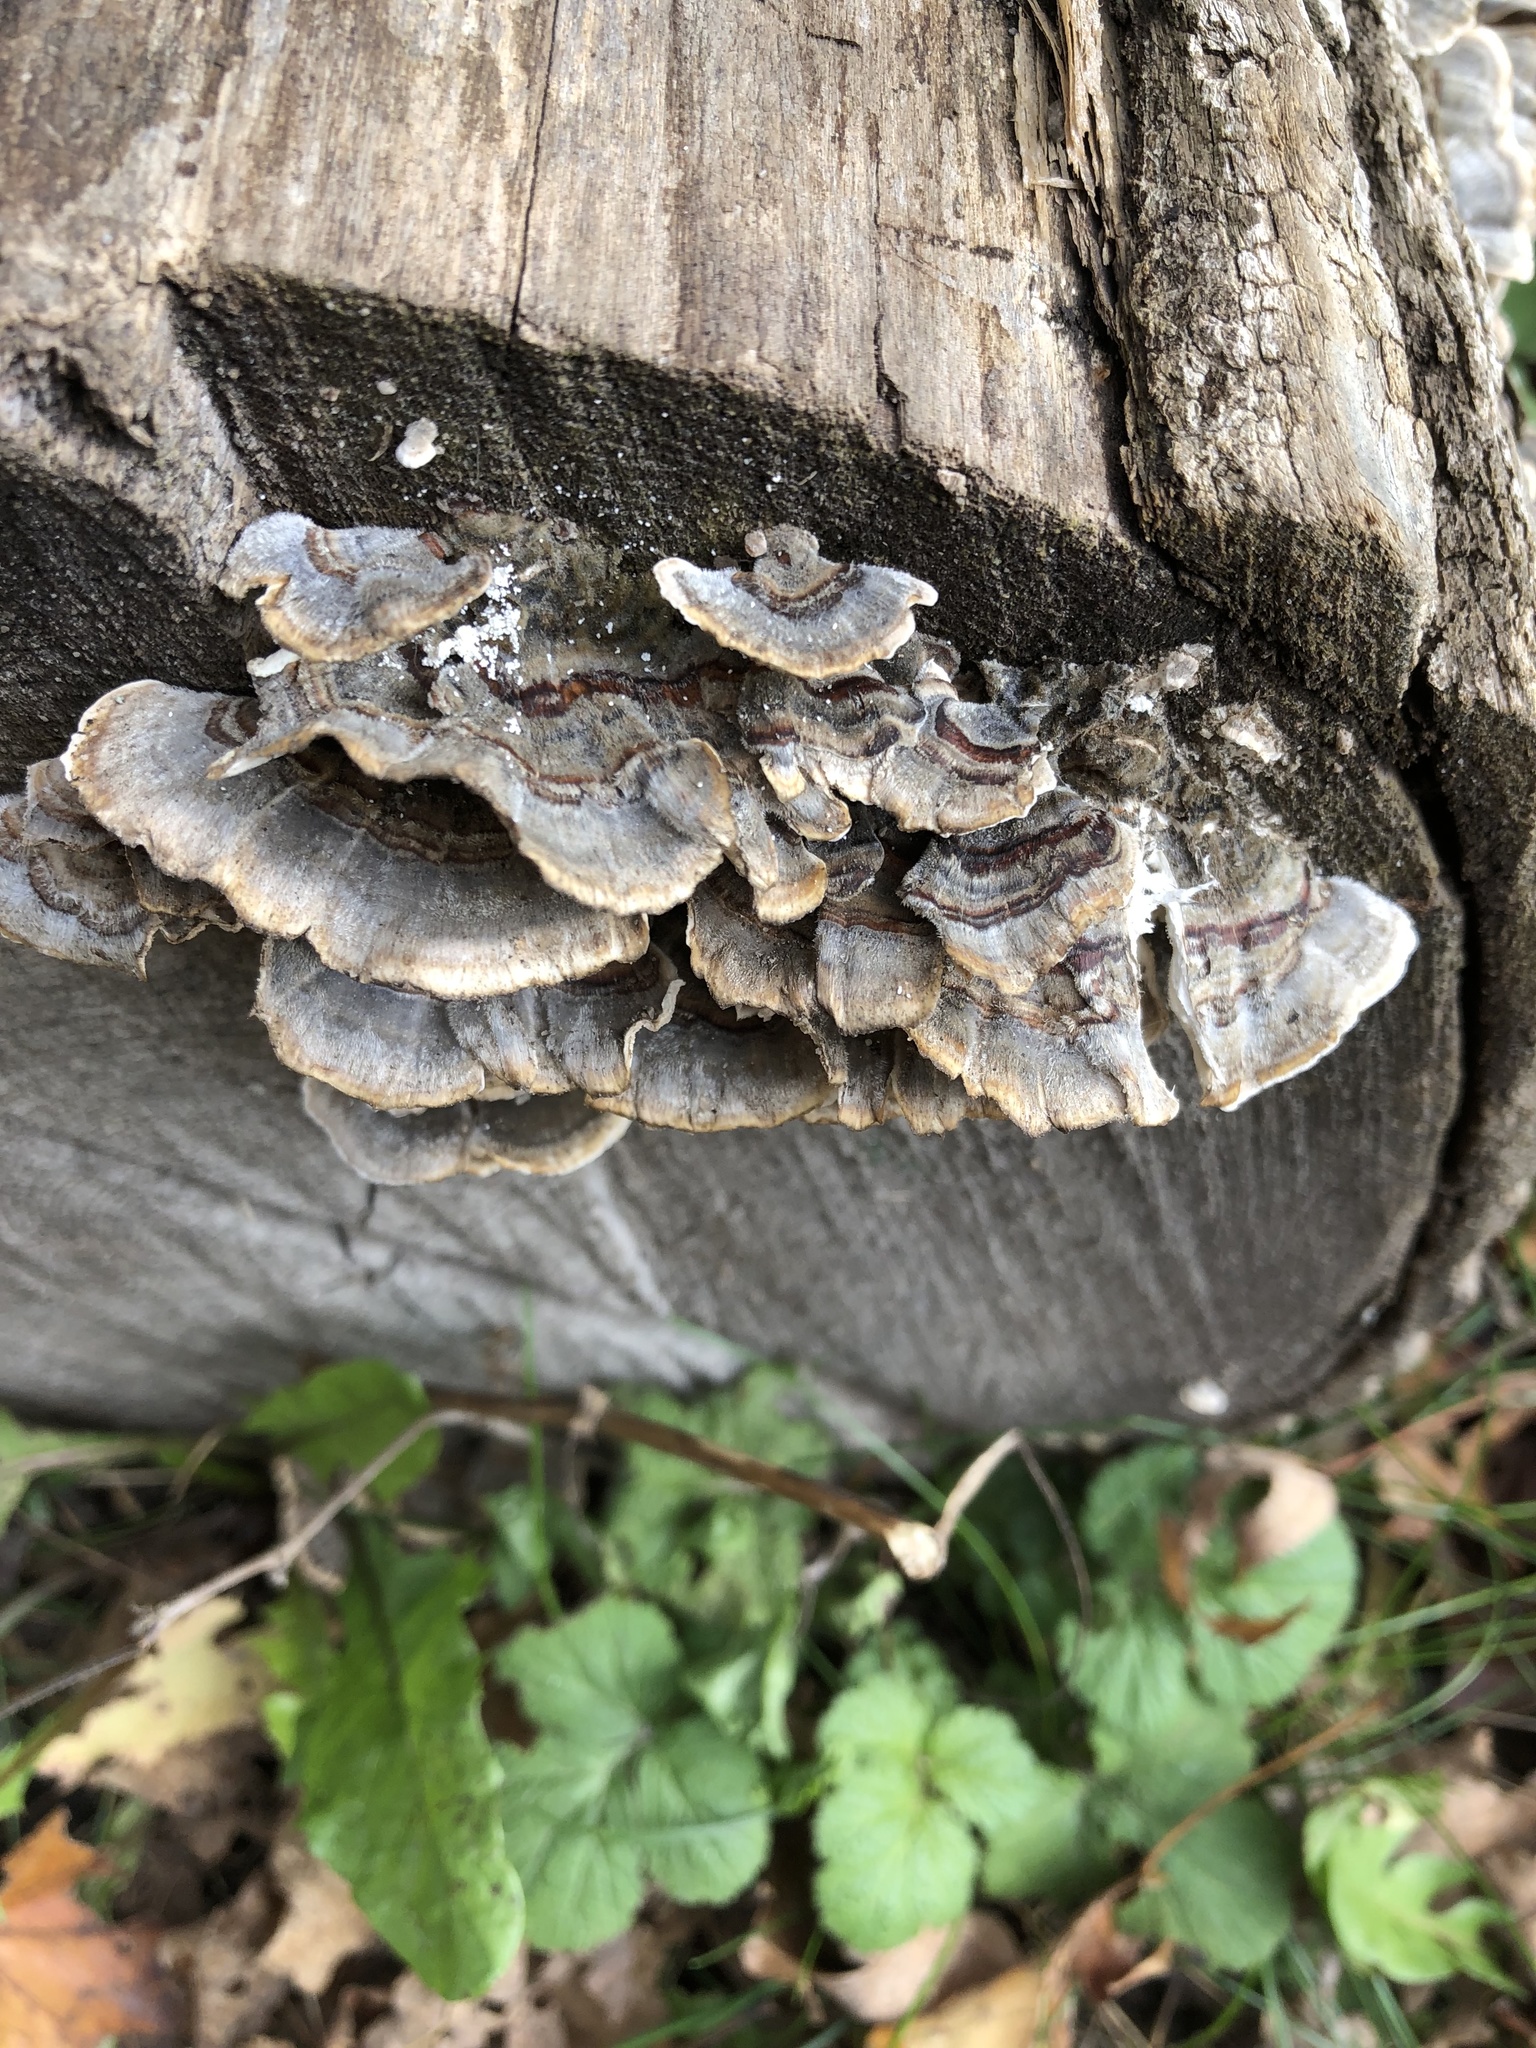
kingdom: Fungi
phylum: Basidiomycota
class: Agaricomycetes
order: Polyporales
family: Polyporaceae
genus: Trametes
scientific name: Trametes versicolor
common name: Turkeytail
